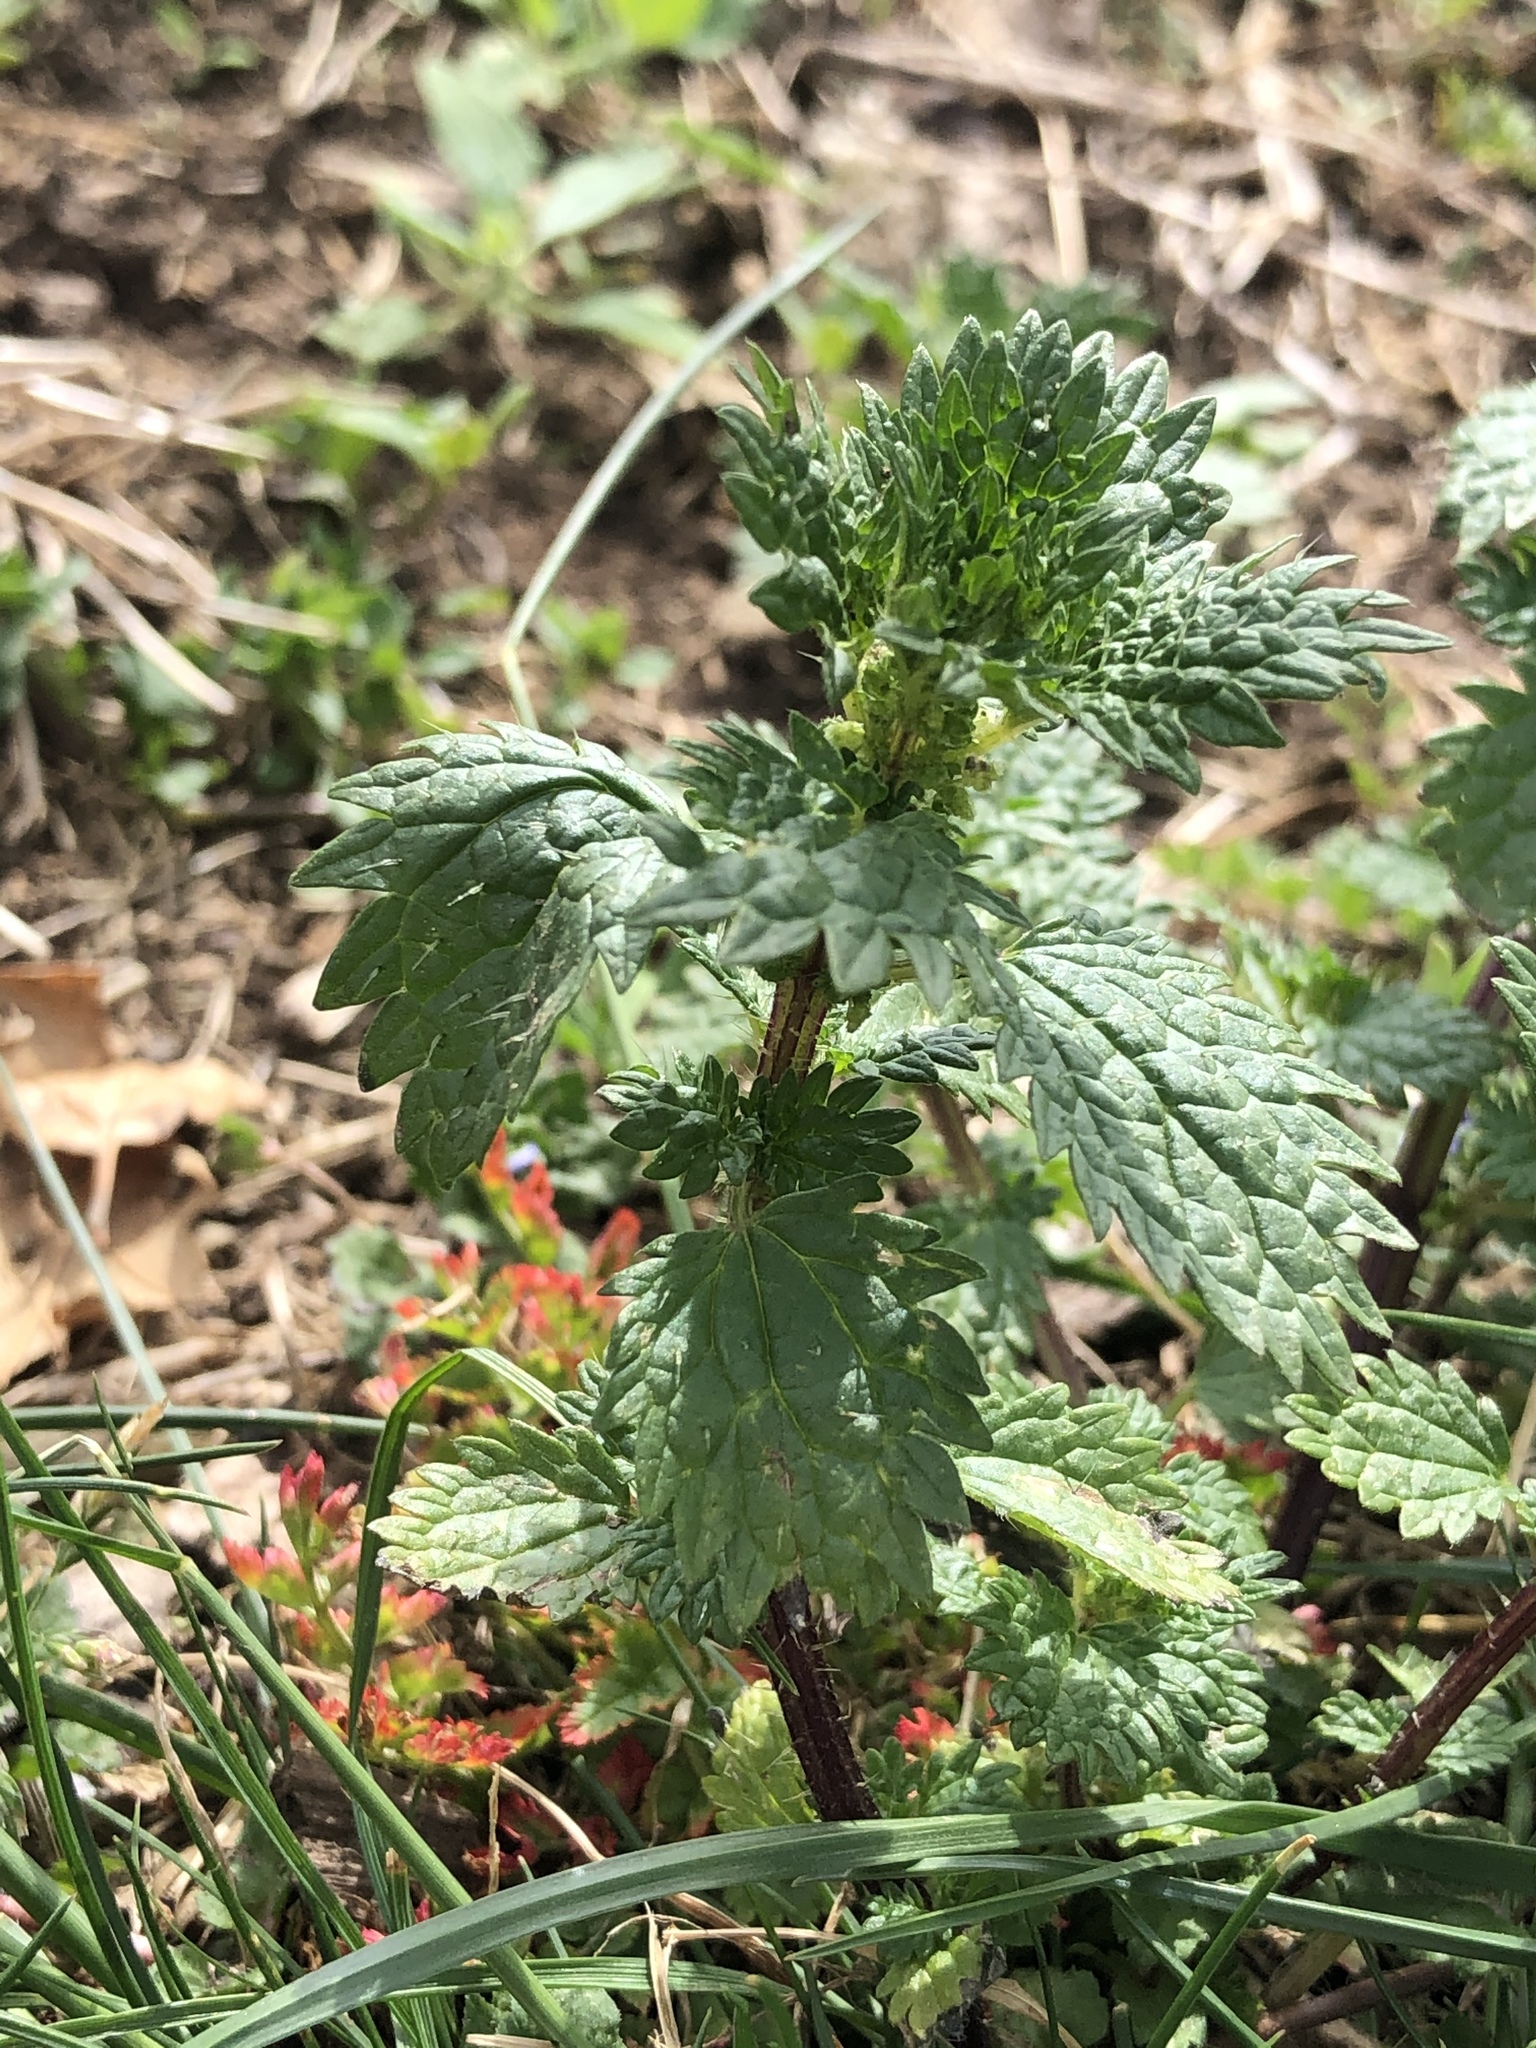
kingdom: Plantae
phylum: Tracheophyta
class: Magnoliopsida
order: Rosales
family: Urticaceae
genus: Urtica
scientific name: Urtica urens
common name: Dwarf nettle
